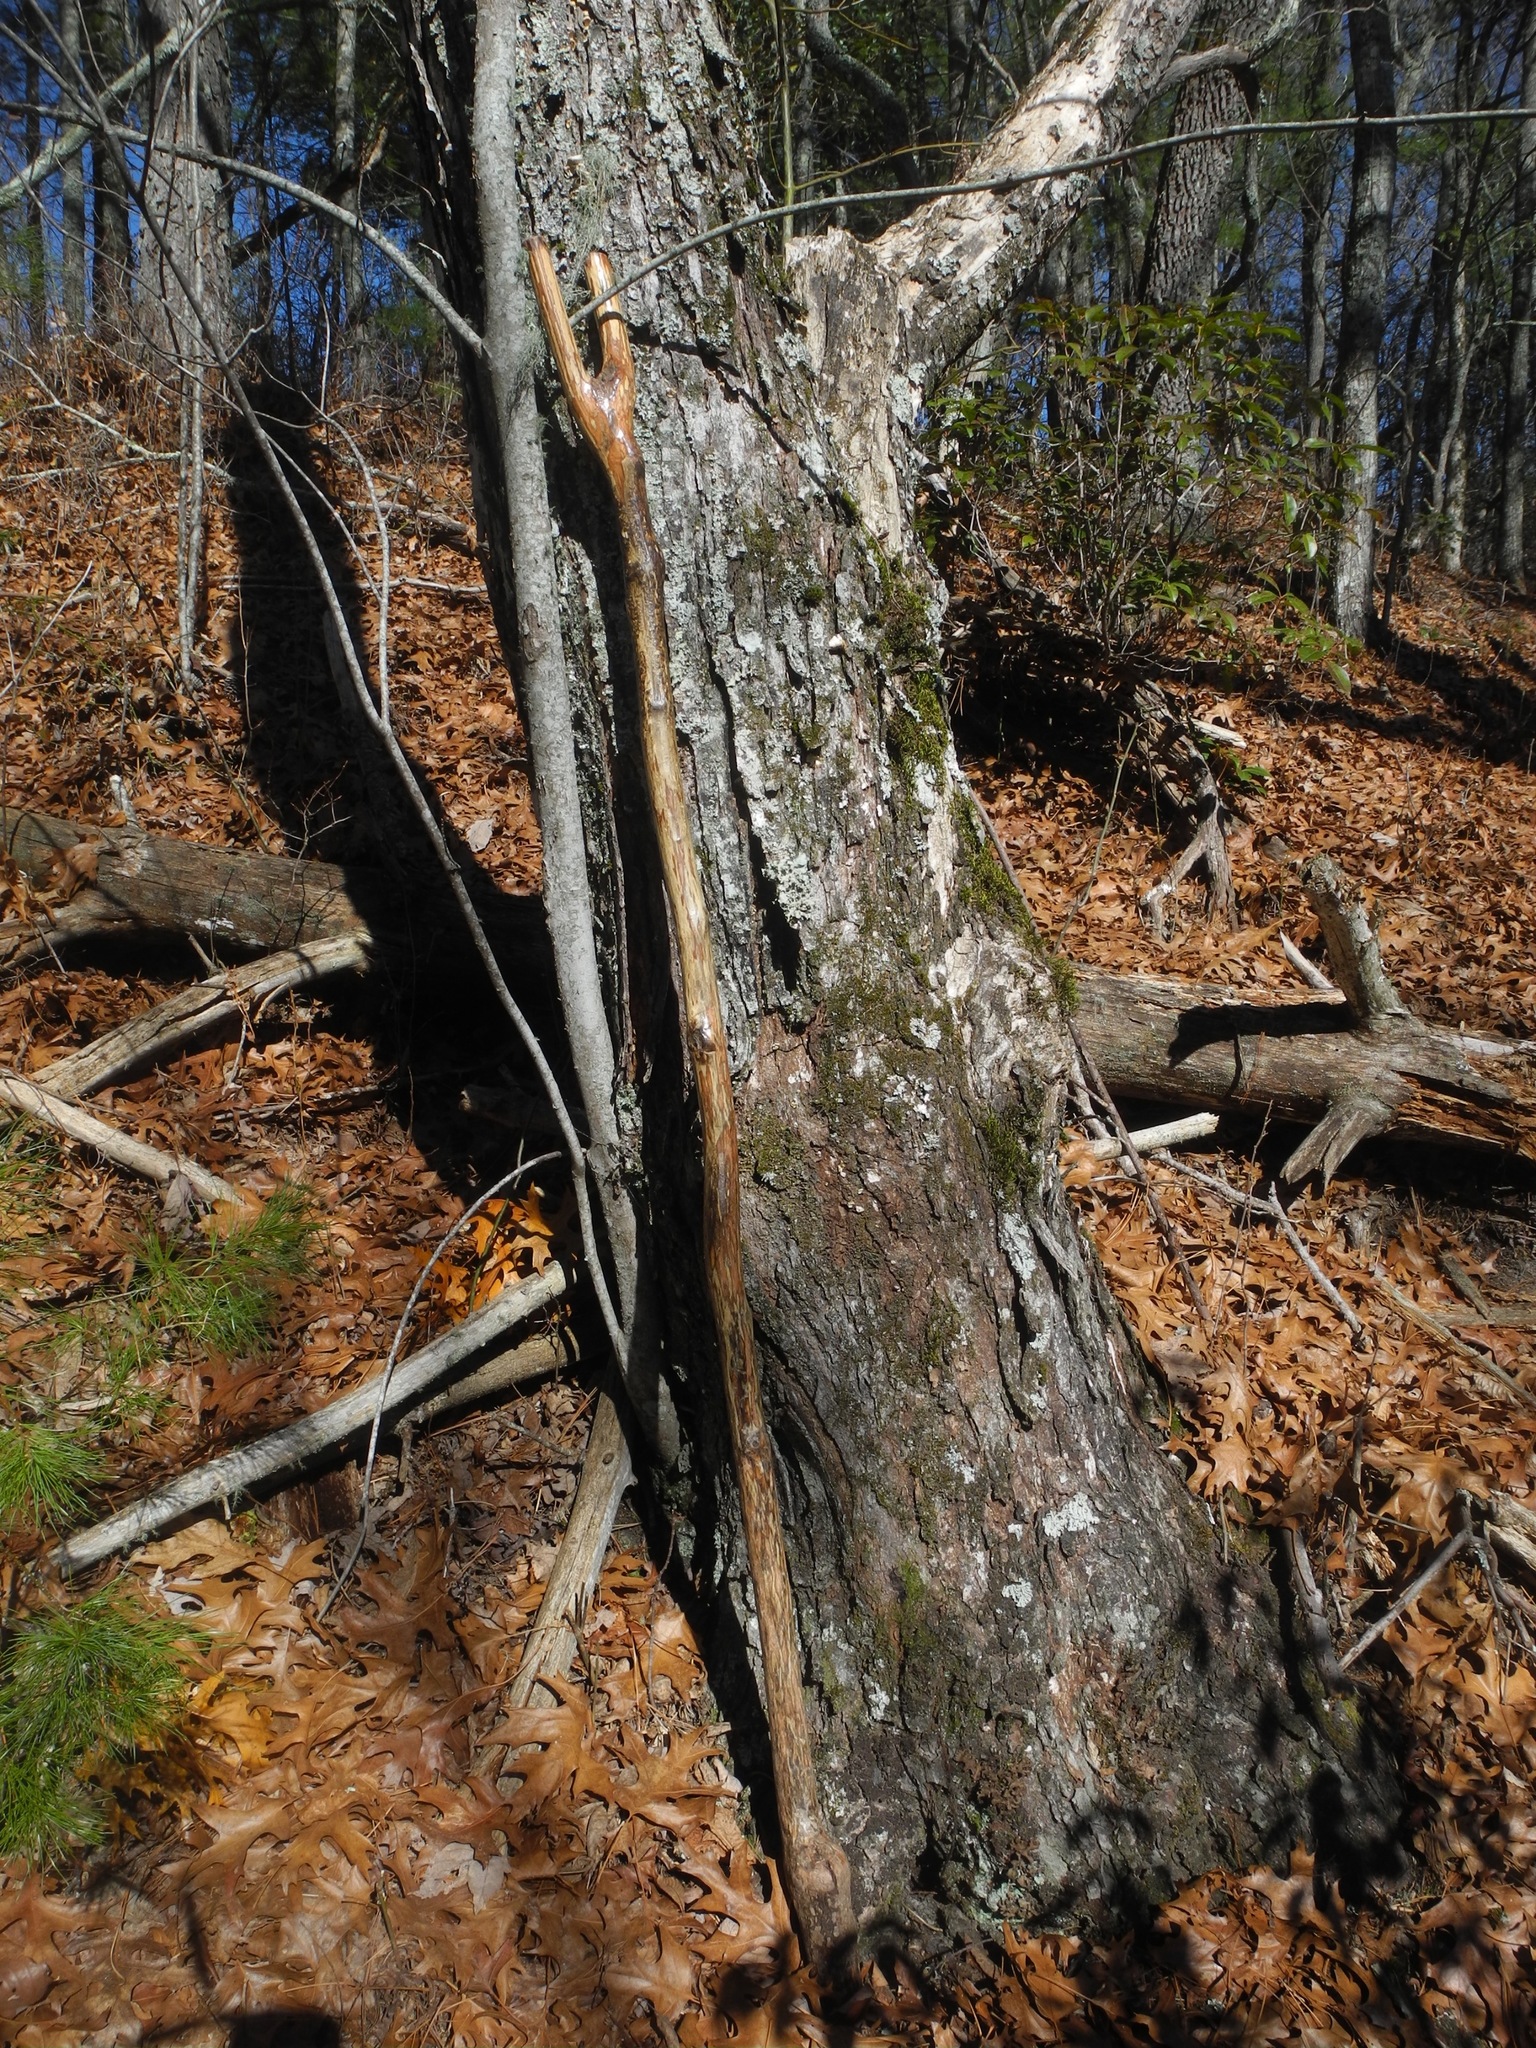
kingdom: Plantae
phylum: Tracheophyta
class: Magnoliopsida
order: Sapindales
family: Sapindaceae
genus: Acer
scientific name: Acer freemanii
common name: Freeman maple
